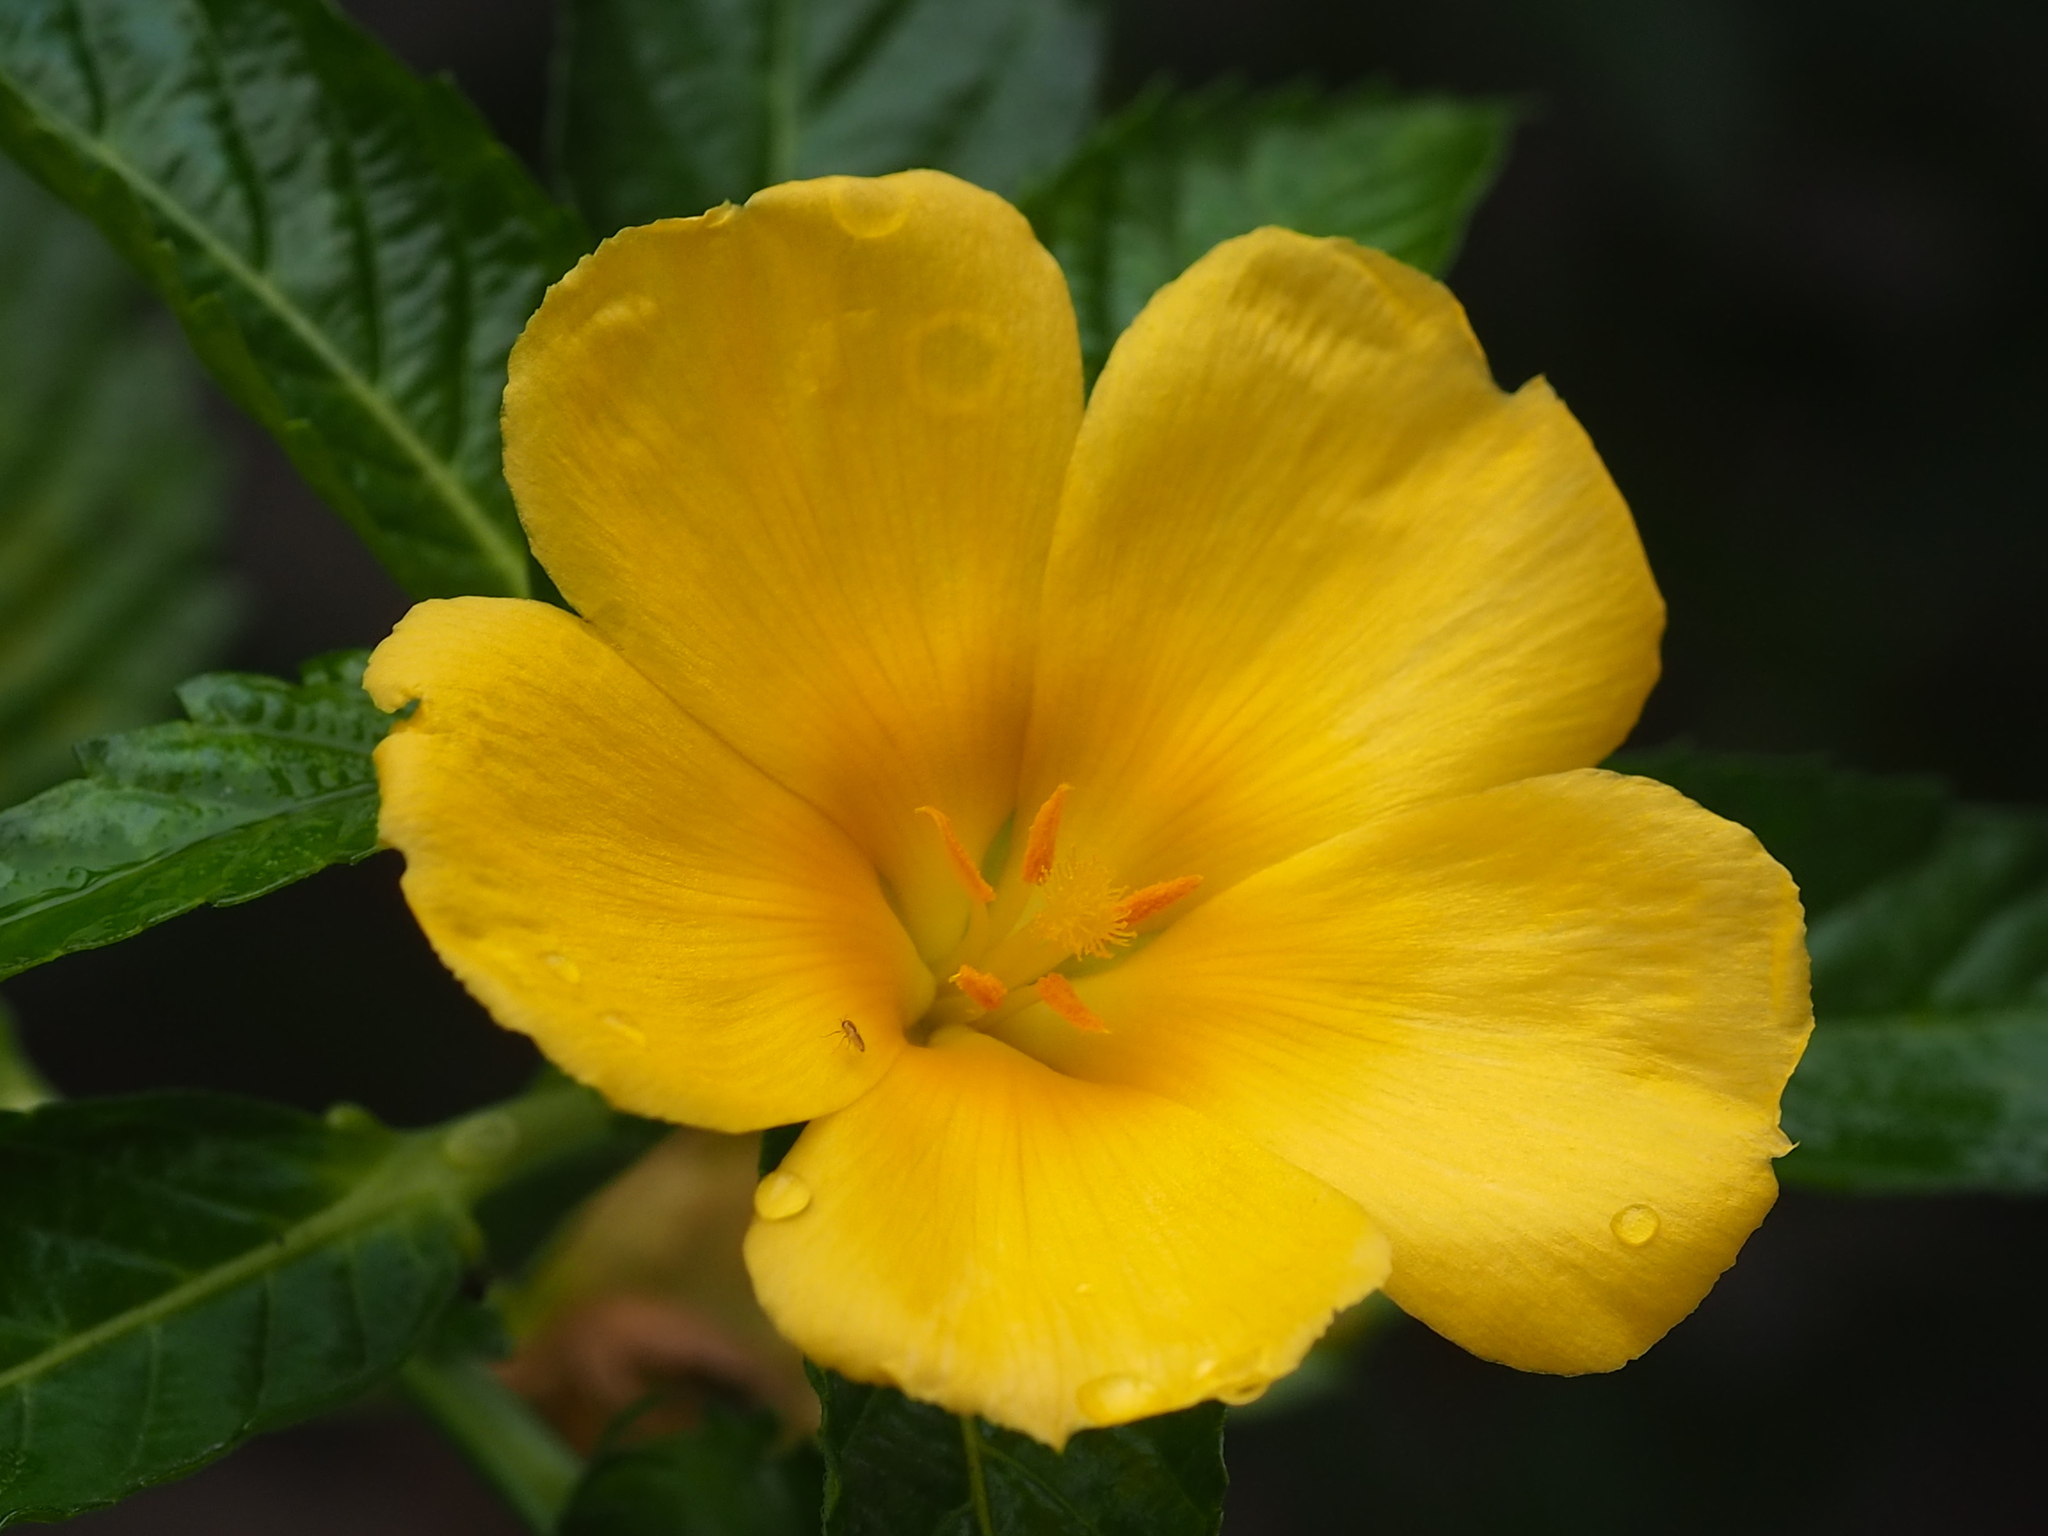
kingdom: Plantae
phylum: Tracheophyta
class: Magnoliopsida
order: Malpighiales
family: Turneraceae
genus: Turnera
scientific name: Turnera ulmifolia
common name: Ramgoat dashalong
